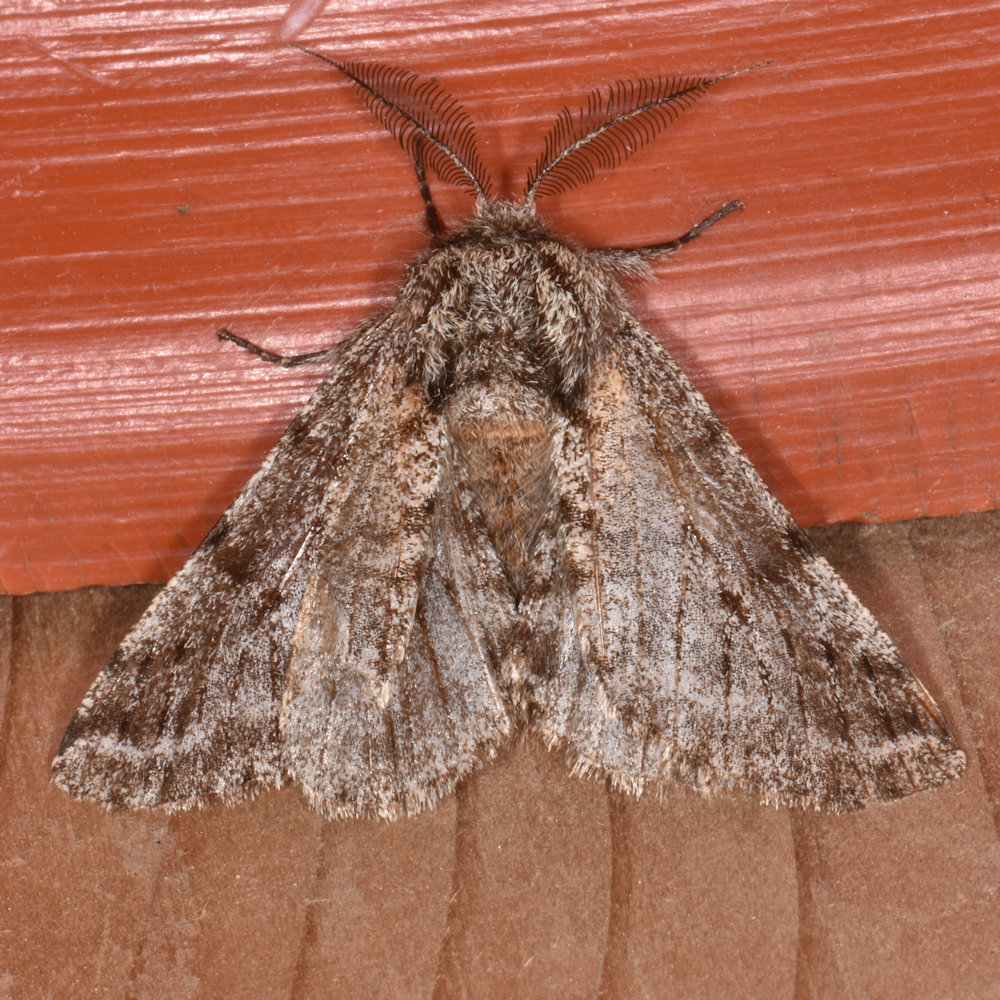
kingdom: Animalia
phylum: Arthropoda
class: Insecta
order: Lepidoptera
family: Geometridae
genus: Lycia
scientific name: Lycia ursaria
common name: Stout spanworm
